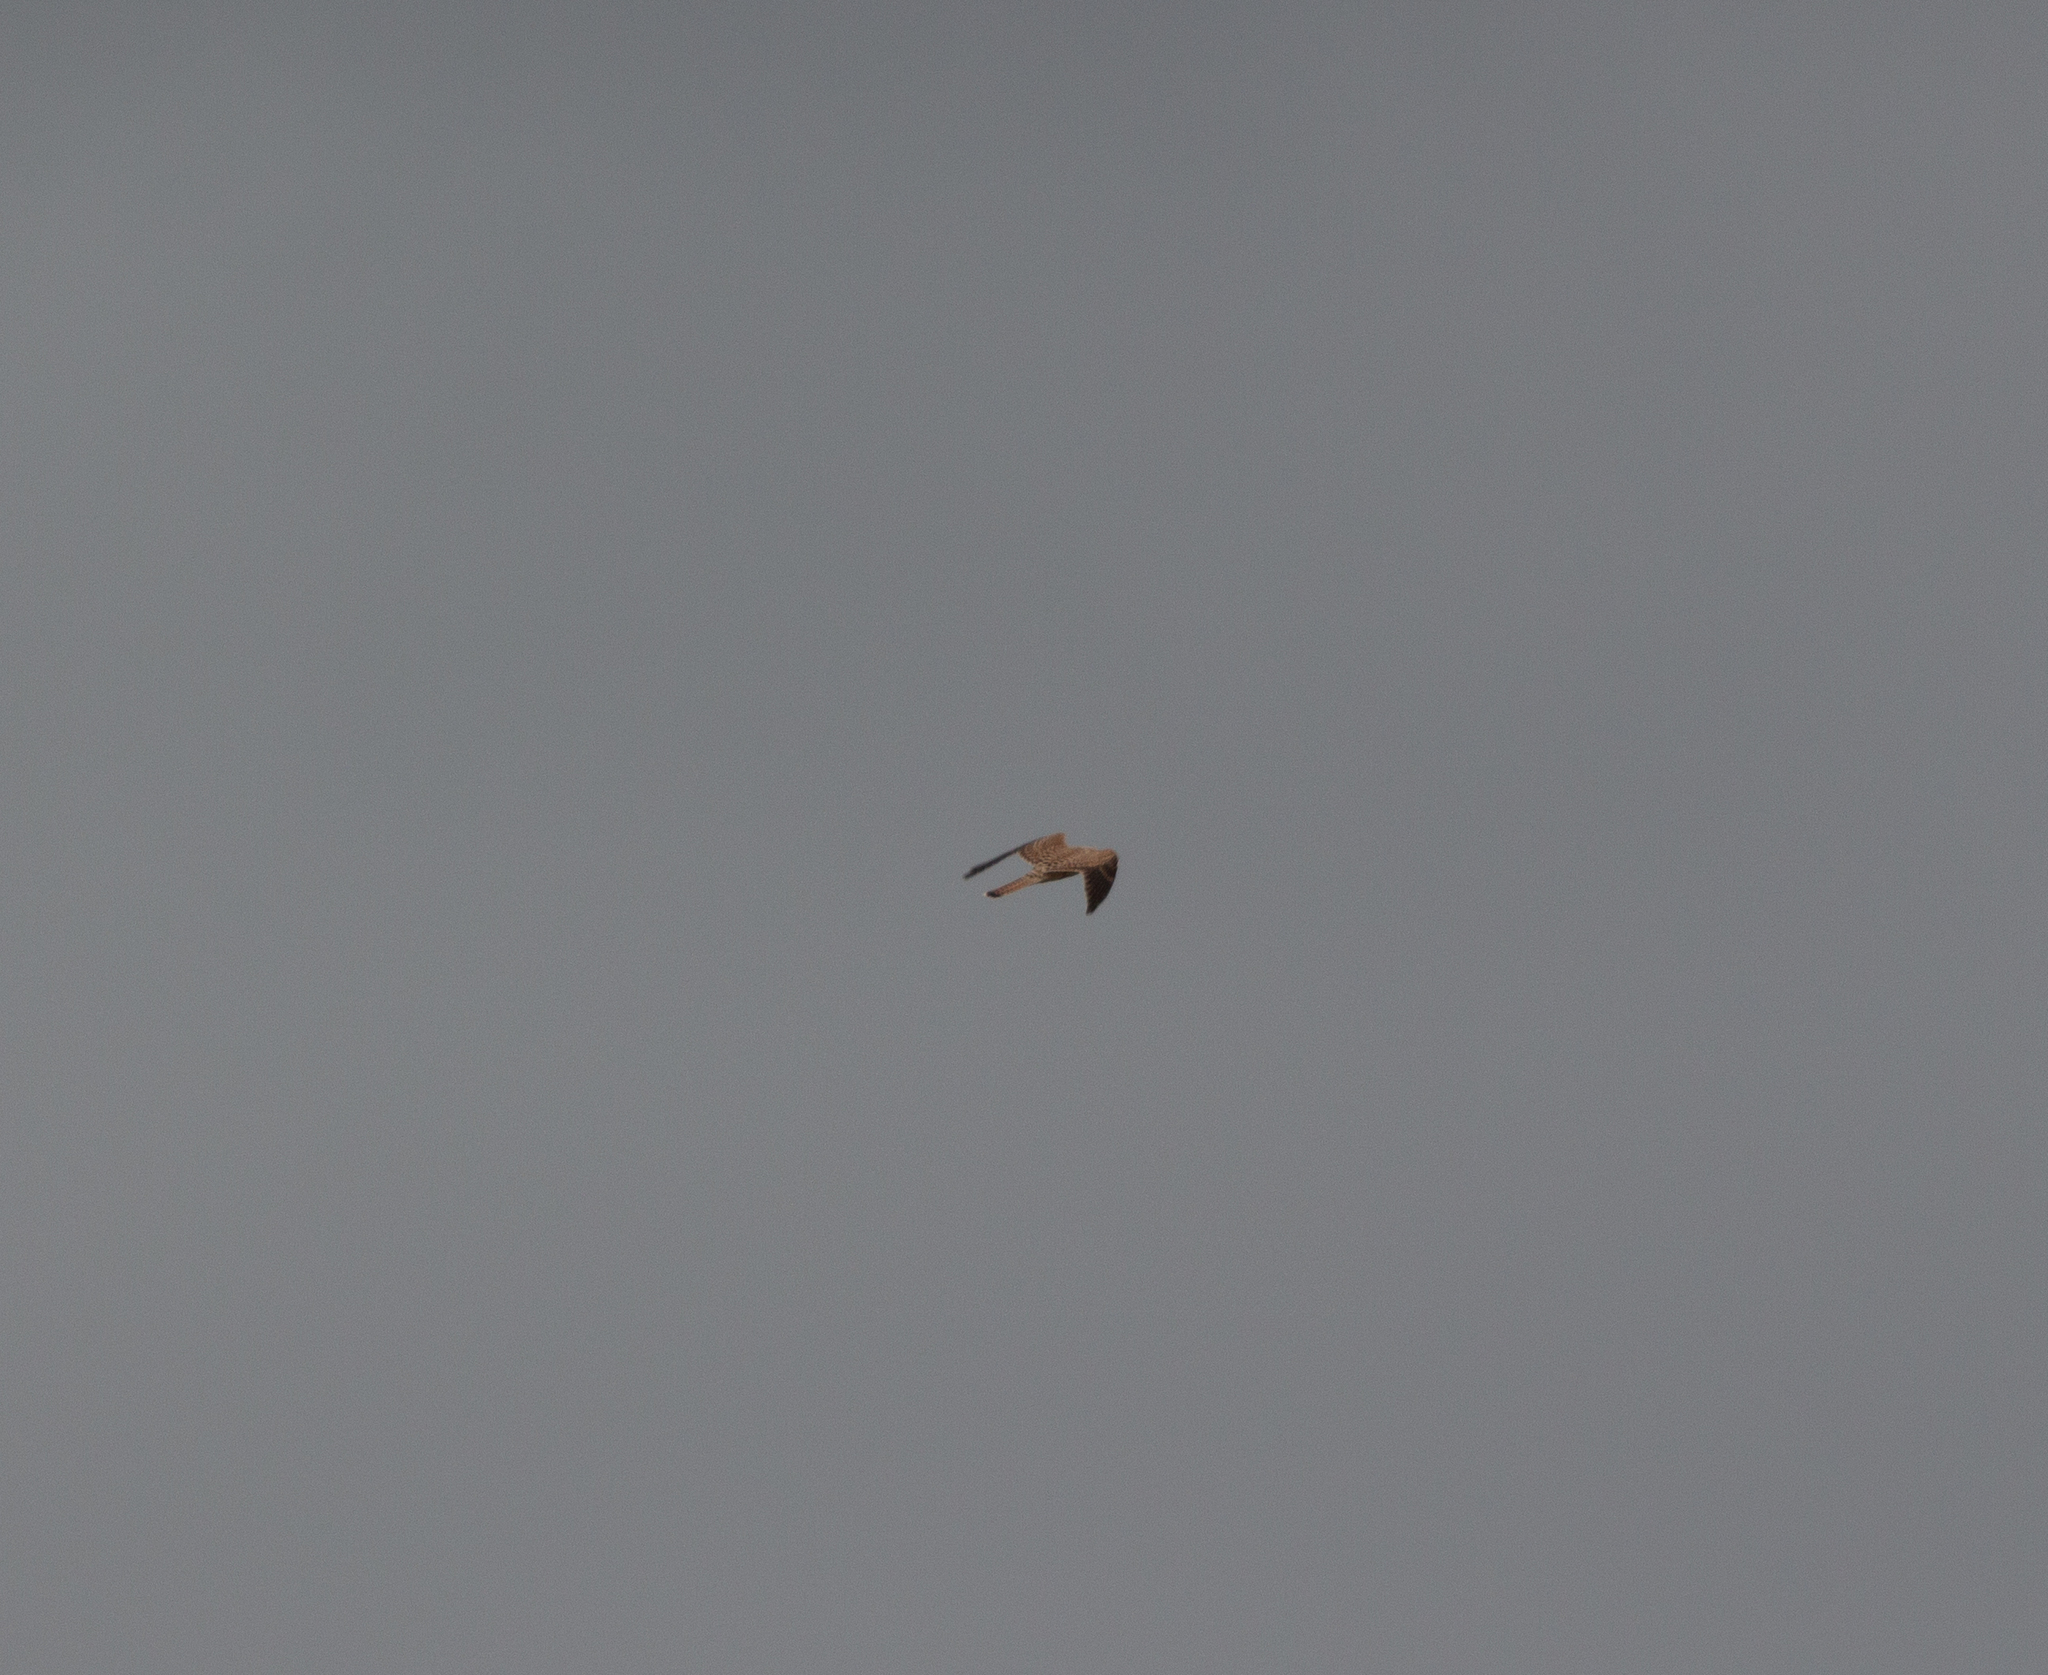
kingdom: Animalia
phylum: Chordata
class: Aves
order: Falconiformes
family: Falconidae
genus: Falco
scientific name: Falco tinnunculus
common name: Common kestrel
